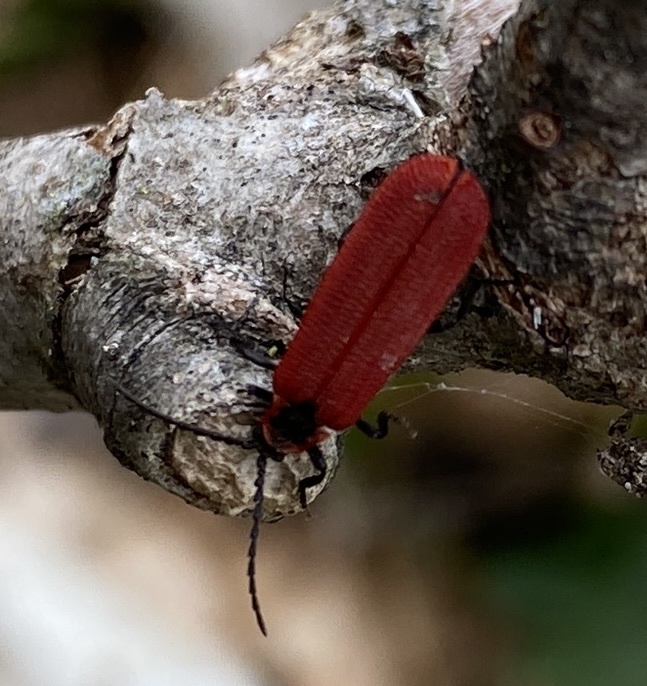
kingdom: Animalia
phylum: Arthropoda
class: Insecta
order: Coleoptera
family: Lycidae
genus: Dictyoptera
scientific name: Dictyoptera aurora
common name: Golden net-winged beetle
